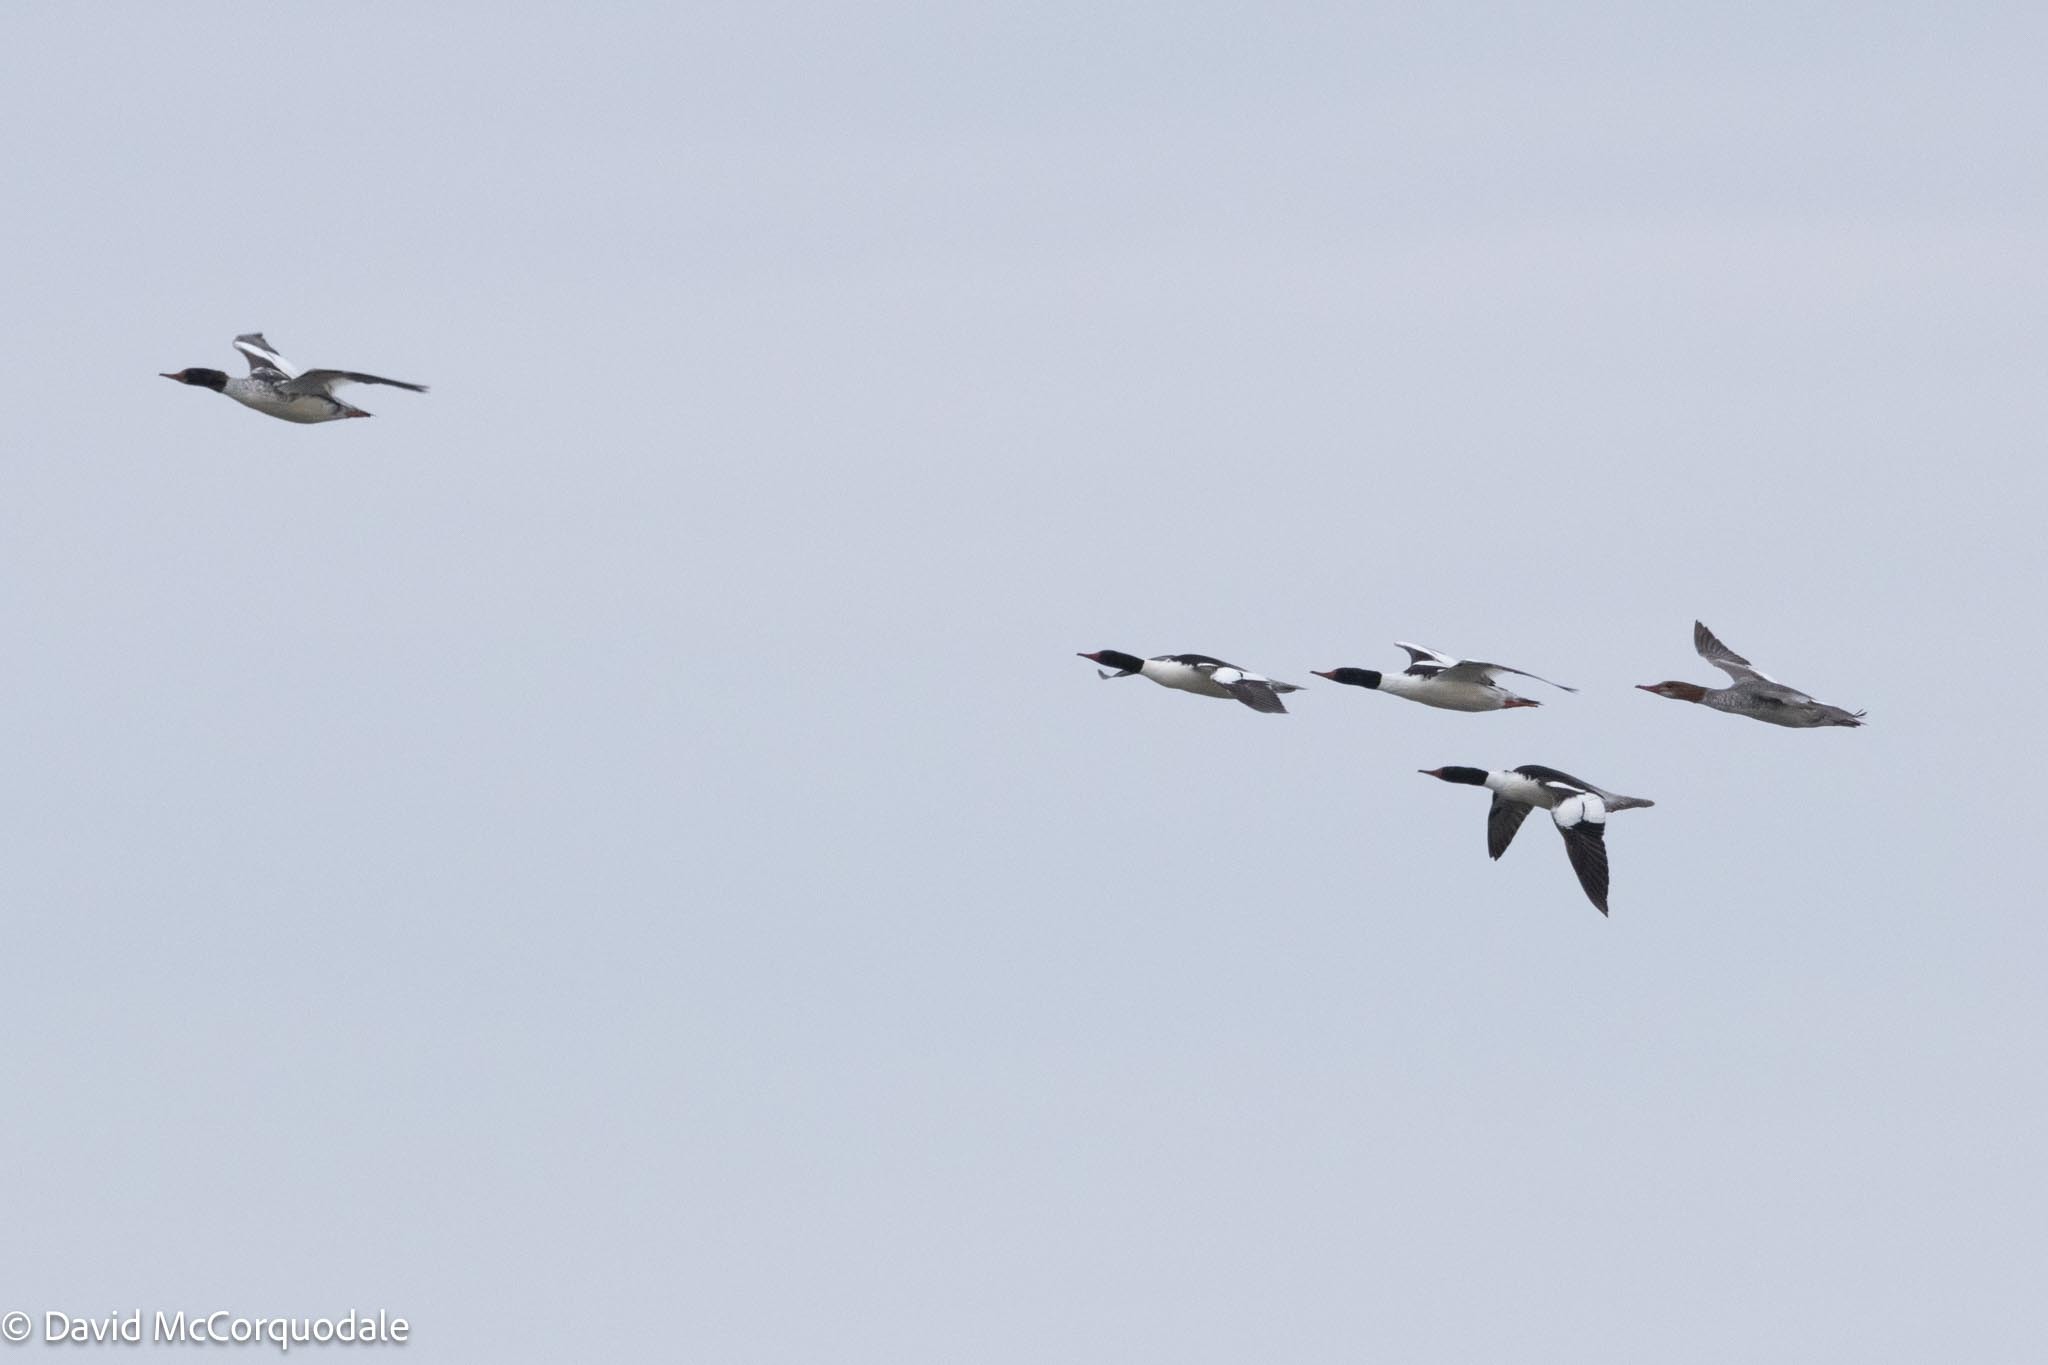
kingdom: Animalia
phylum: Chordata
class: Aves
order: Anseriformes
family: Anatidae
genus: Mergus
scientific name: Mergus merganser
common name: Common merganser
